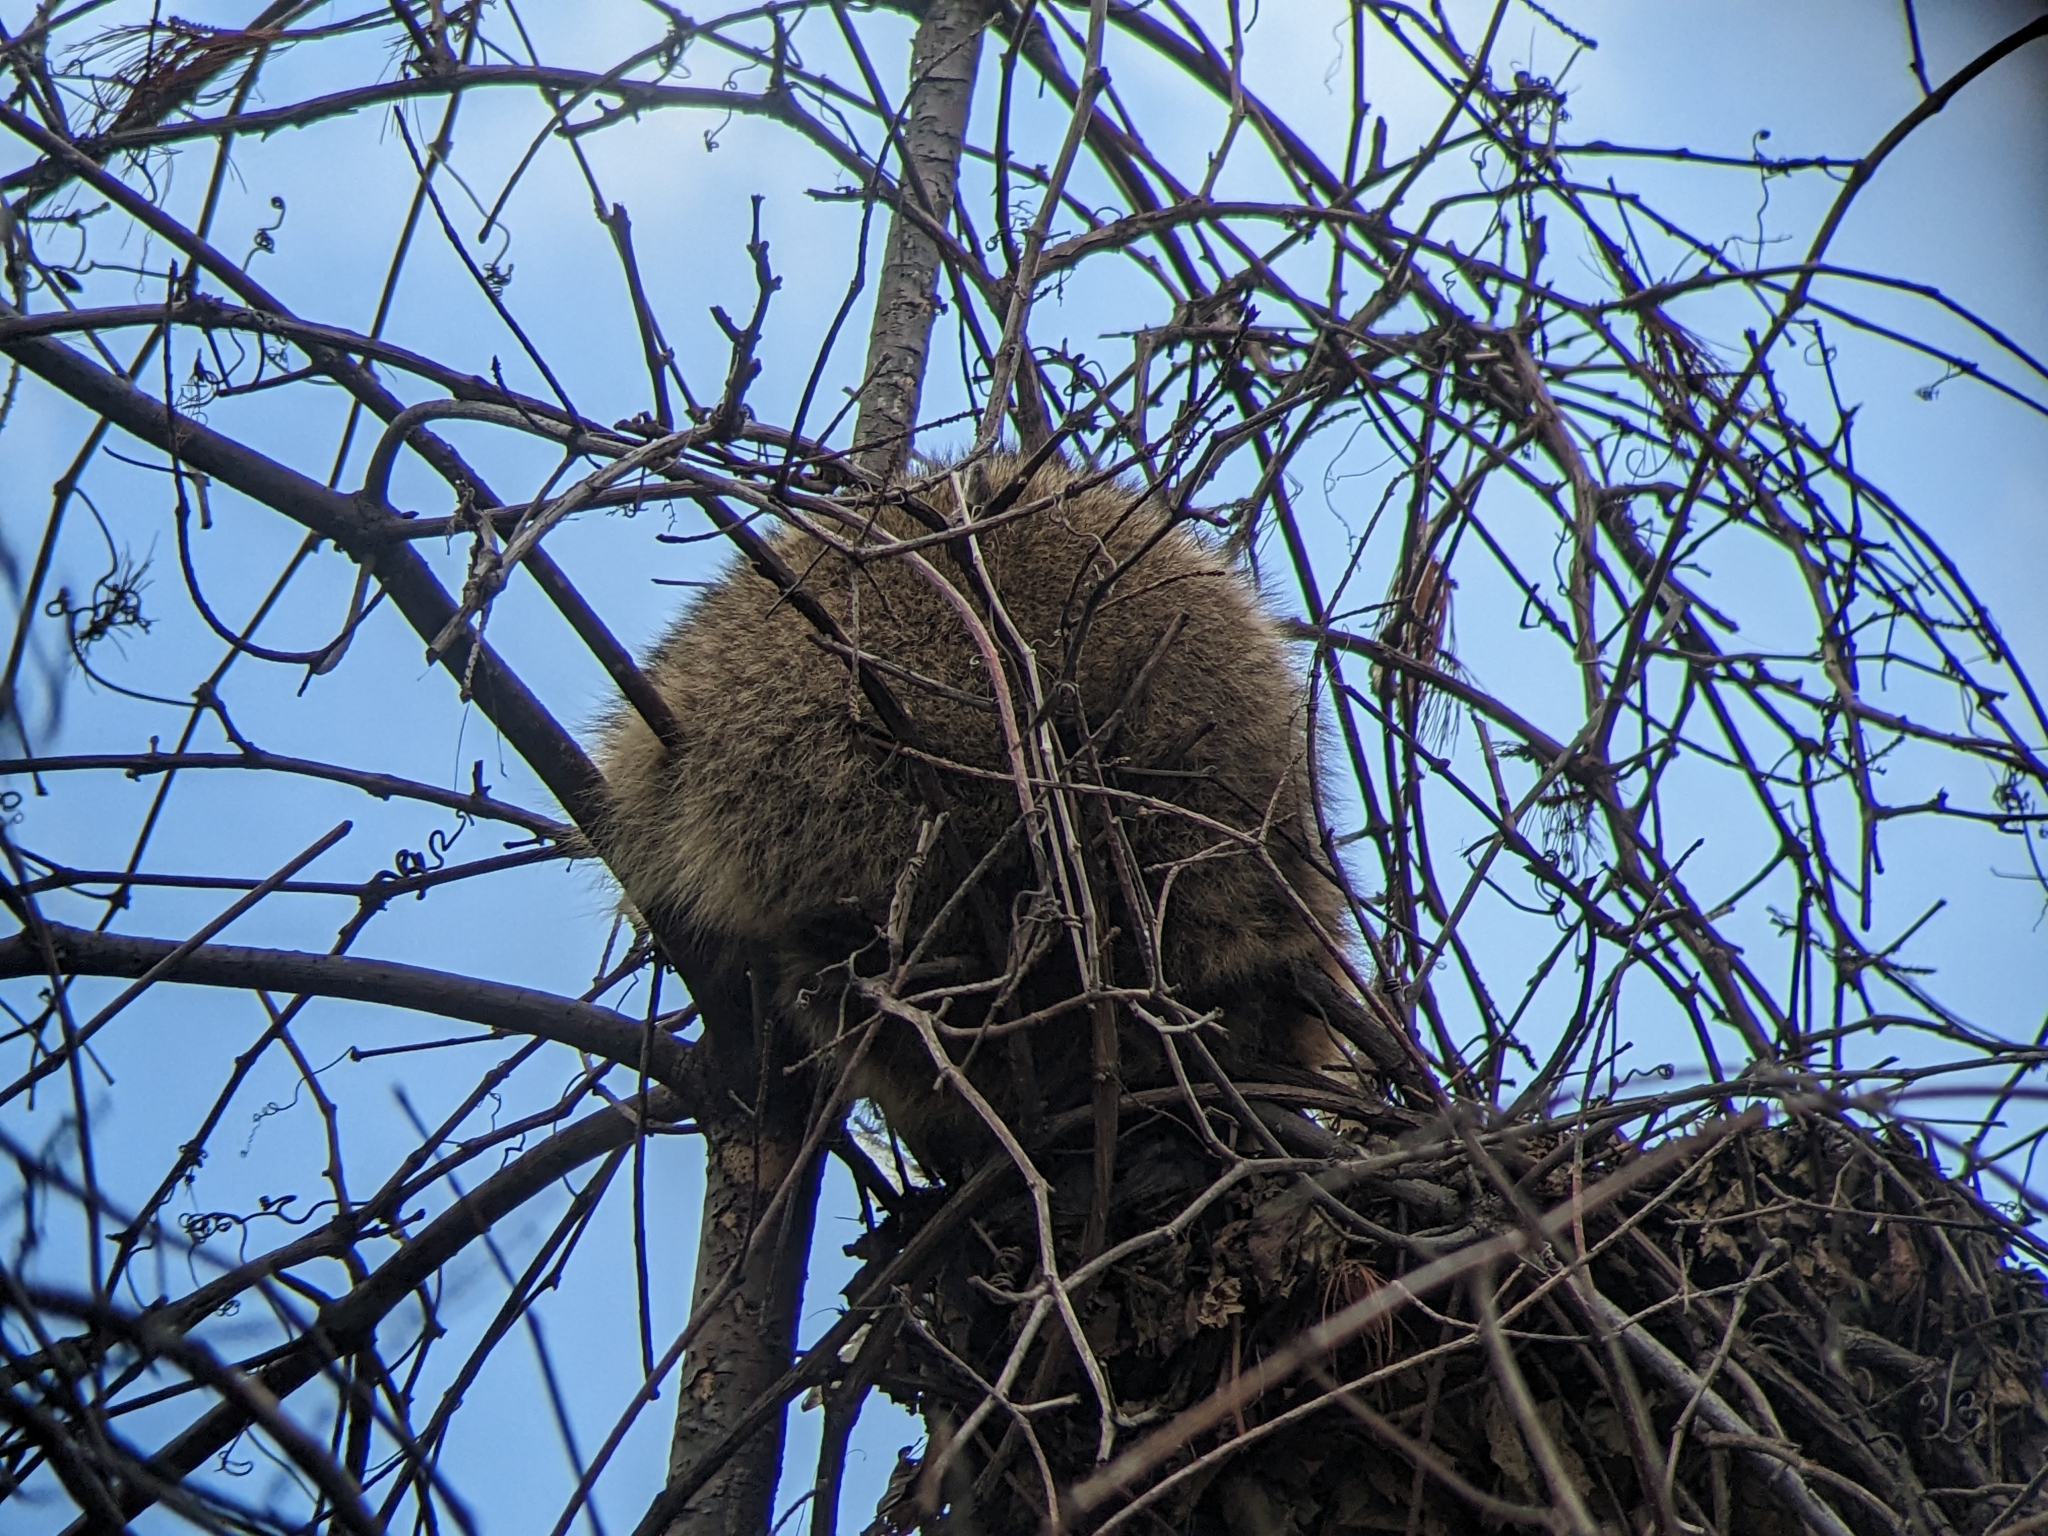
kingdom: Animalia
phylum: Chordata
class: Mammalia
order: Carnivora
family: Procyonidae
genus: Procyon
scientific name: Procyon lotor
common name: Raccoon
